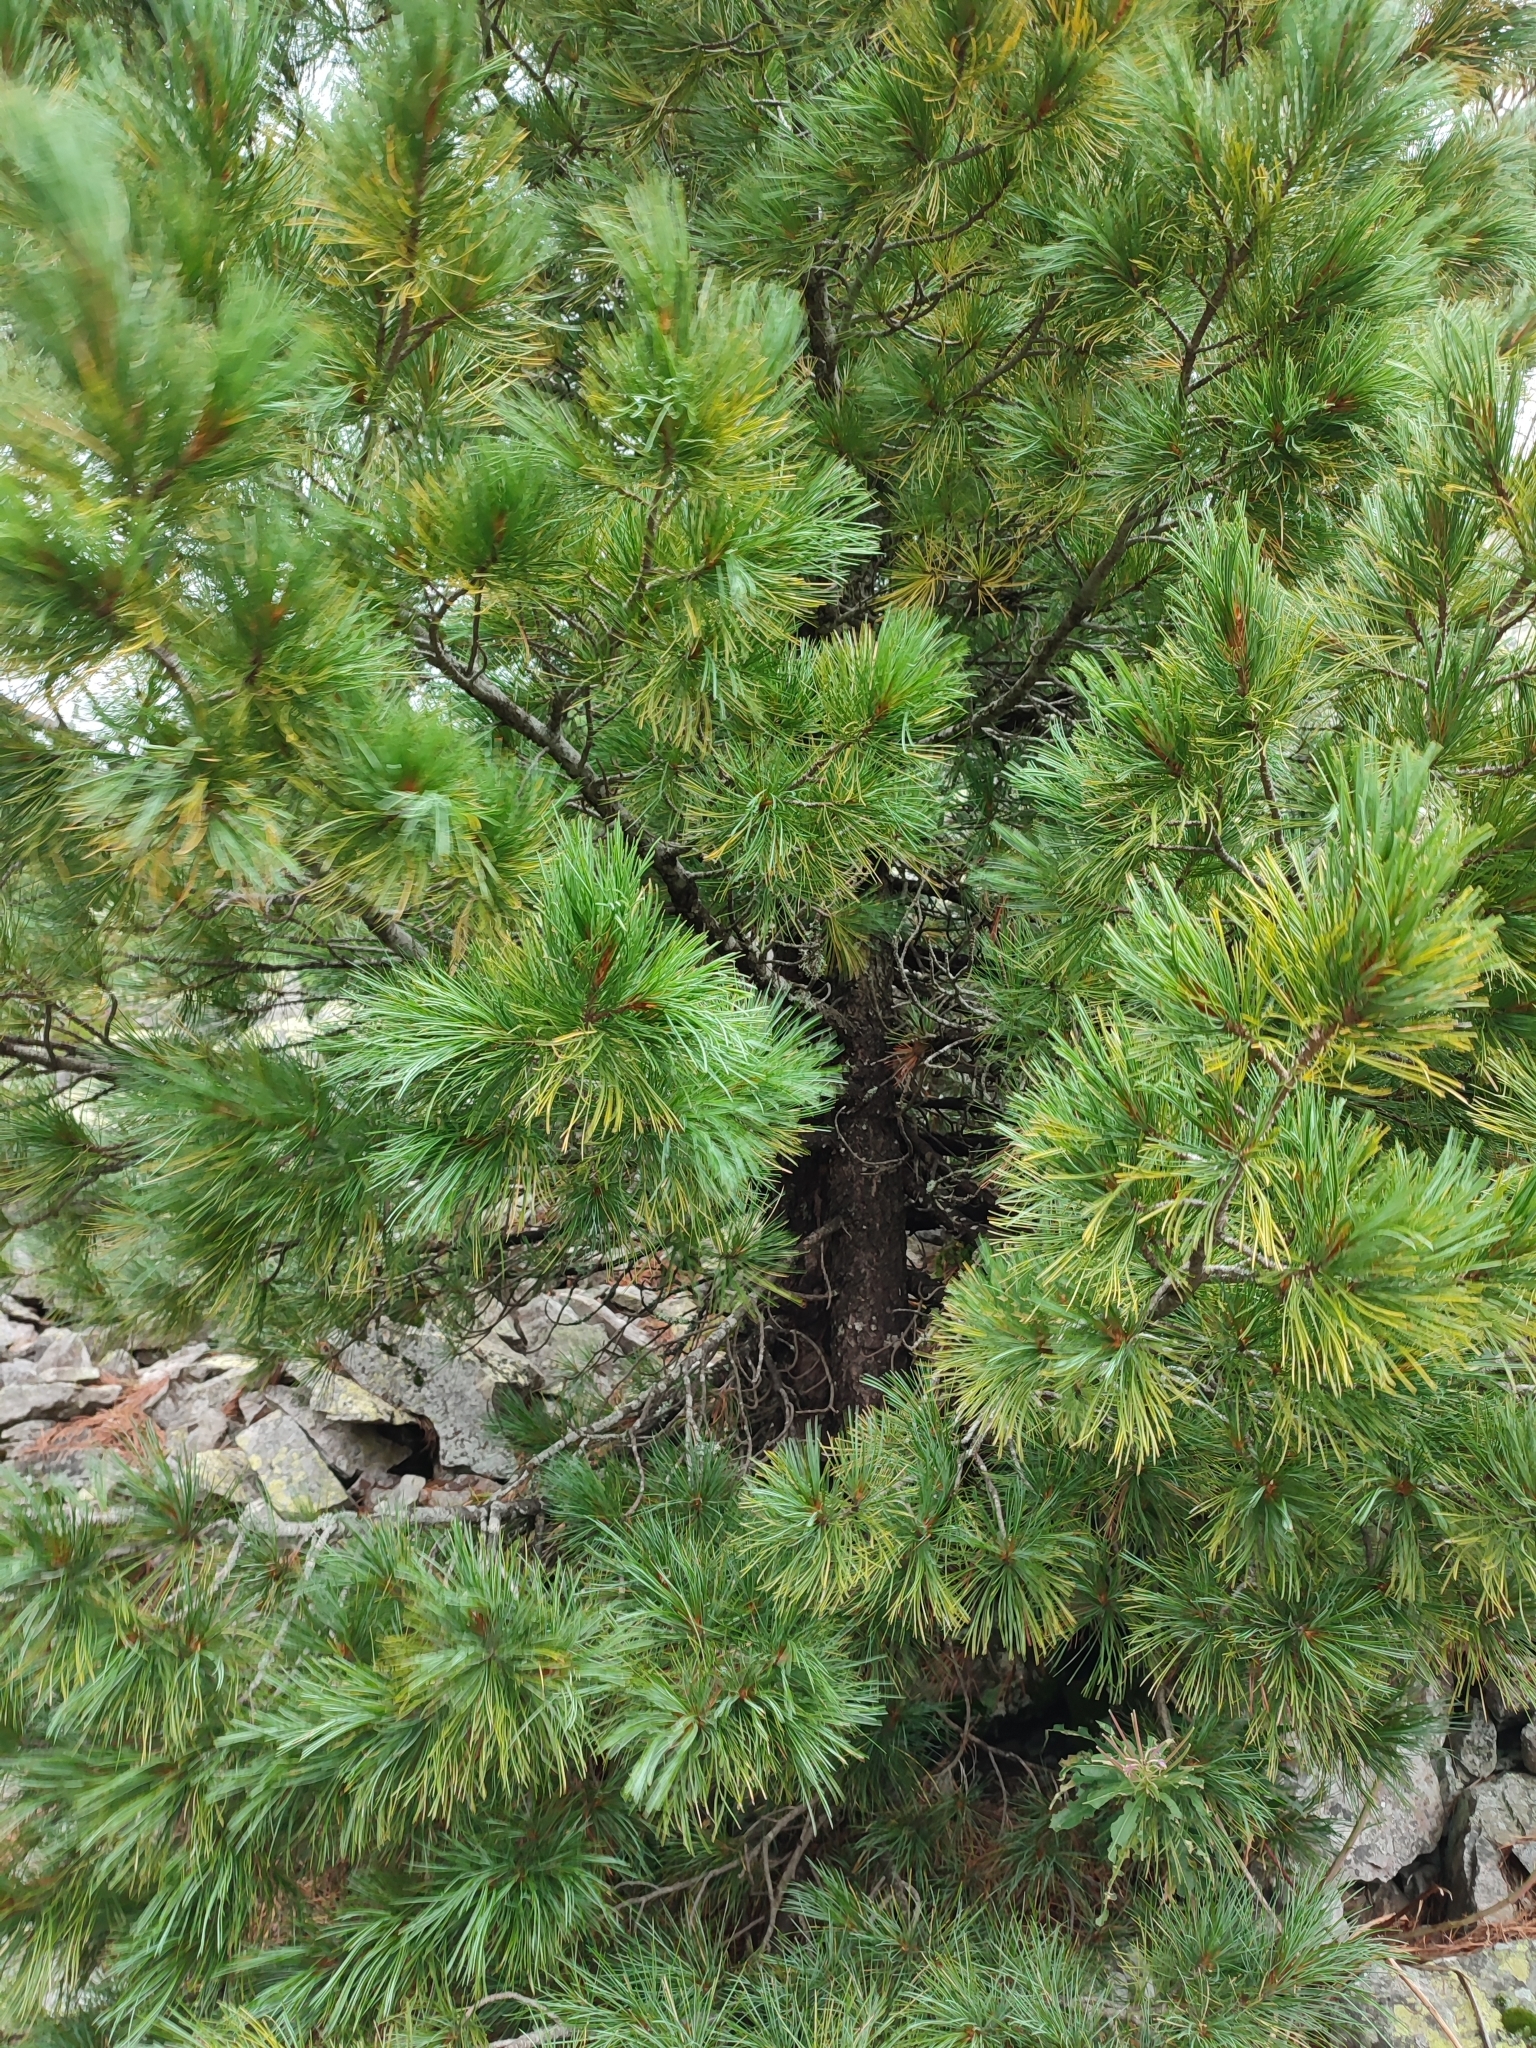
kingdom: Plantae
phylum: Tracheophyta
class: Pinopsida
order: Pinales
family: Pinaceae
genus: Pinus
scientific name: Pinus cembra
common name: Arolla pine
